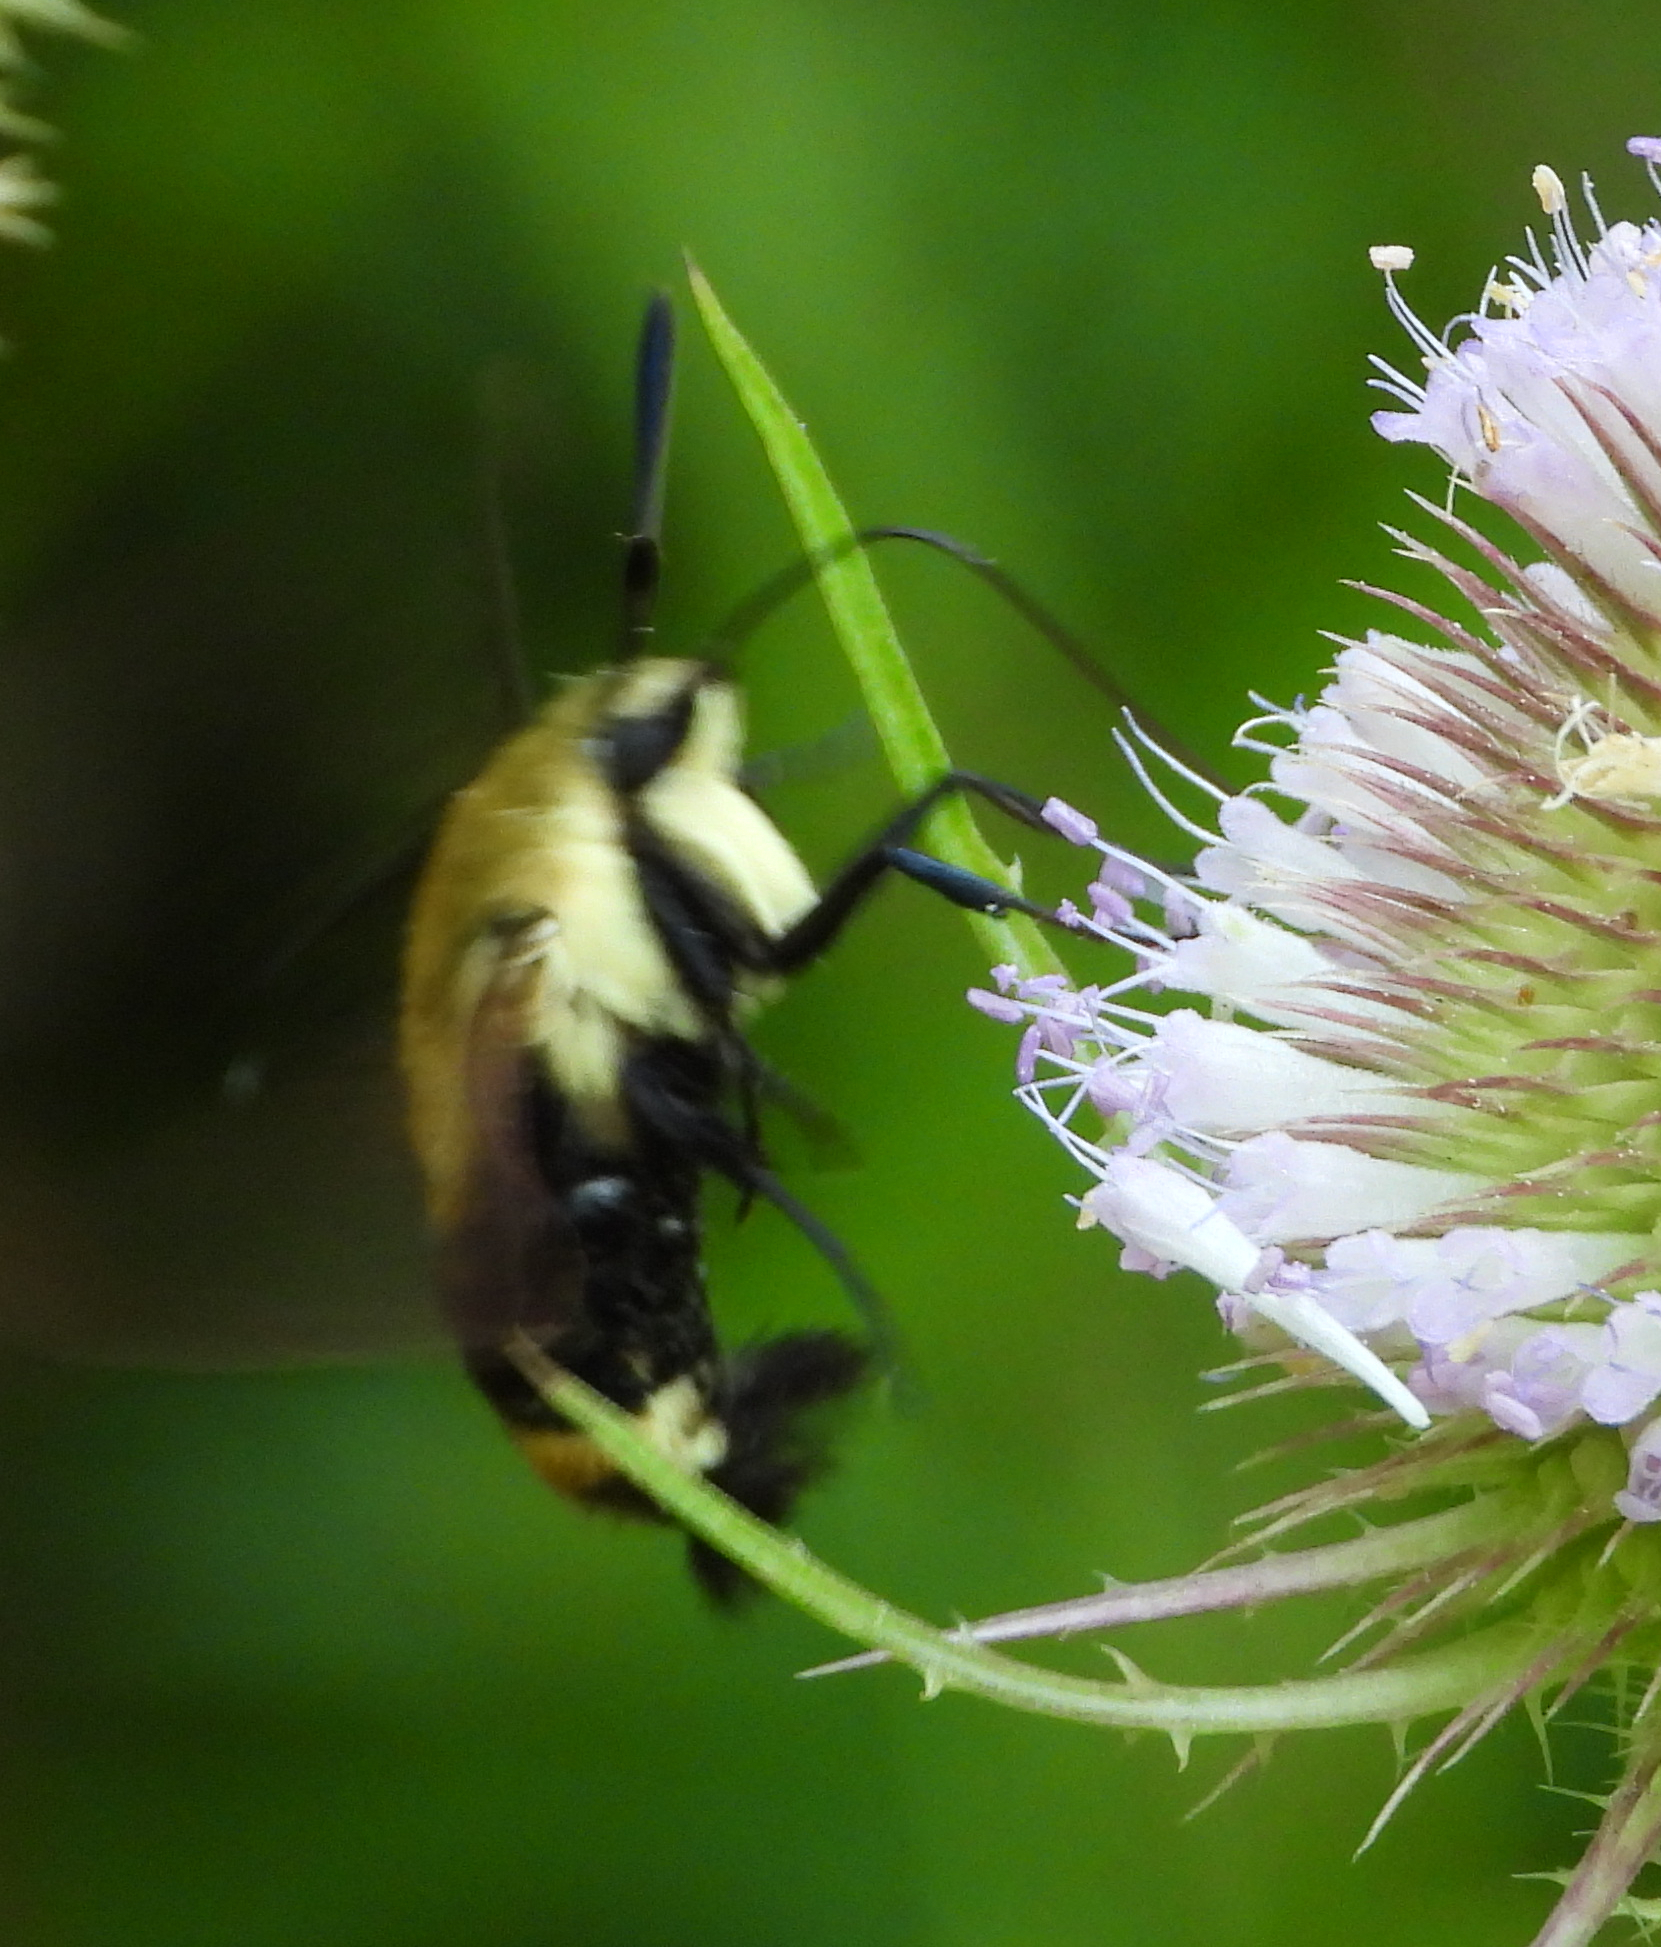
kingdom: Animalia
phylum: Arthropoda
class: Insecta
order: Lepidoptera
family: Sphingidae
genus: Hemaris
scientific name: Hemaris diffinis
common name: Bumblebee moth
